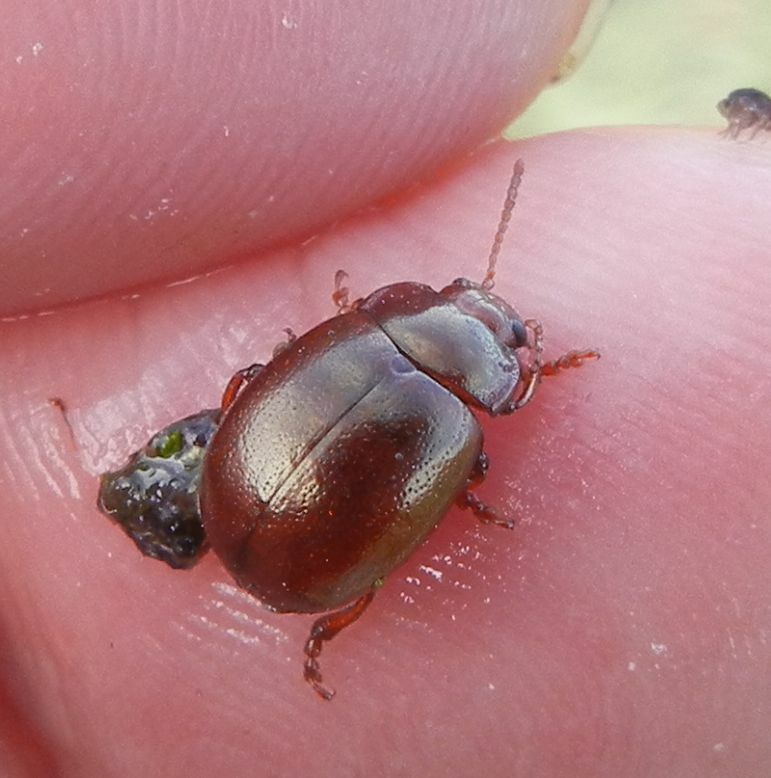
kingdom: Animalia
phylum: Arthropoda
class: Insecta
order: Coleoptera
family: Chrysomelidae
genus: Chrysolina
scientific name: Chrysolina staphylaea
